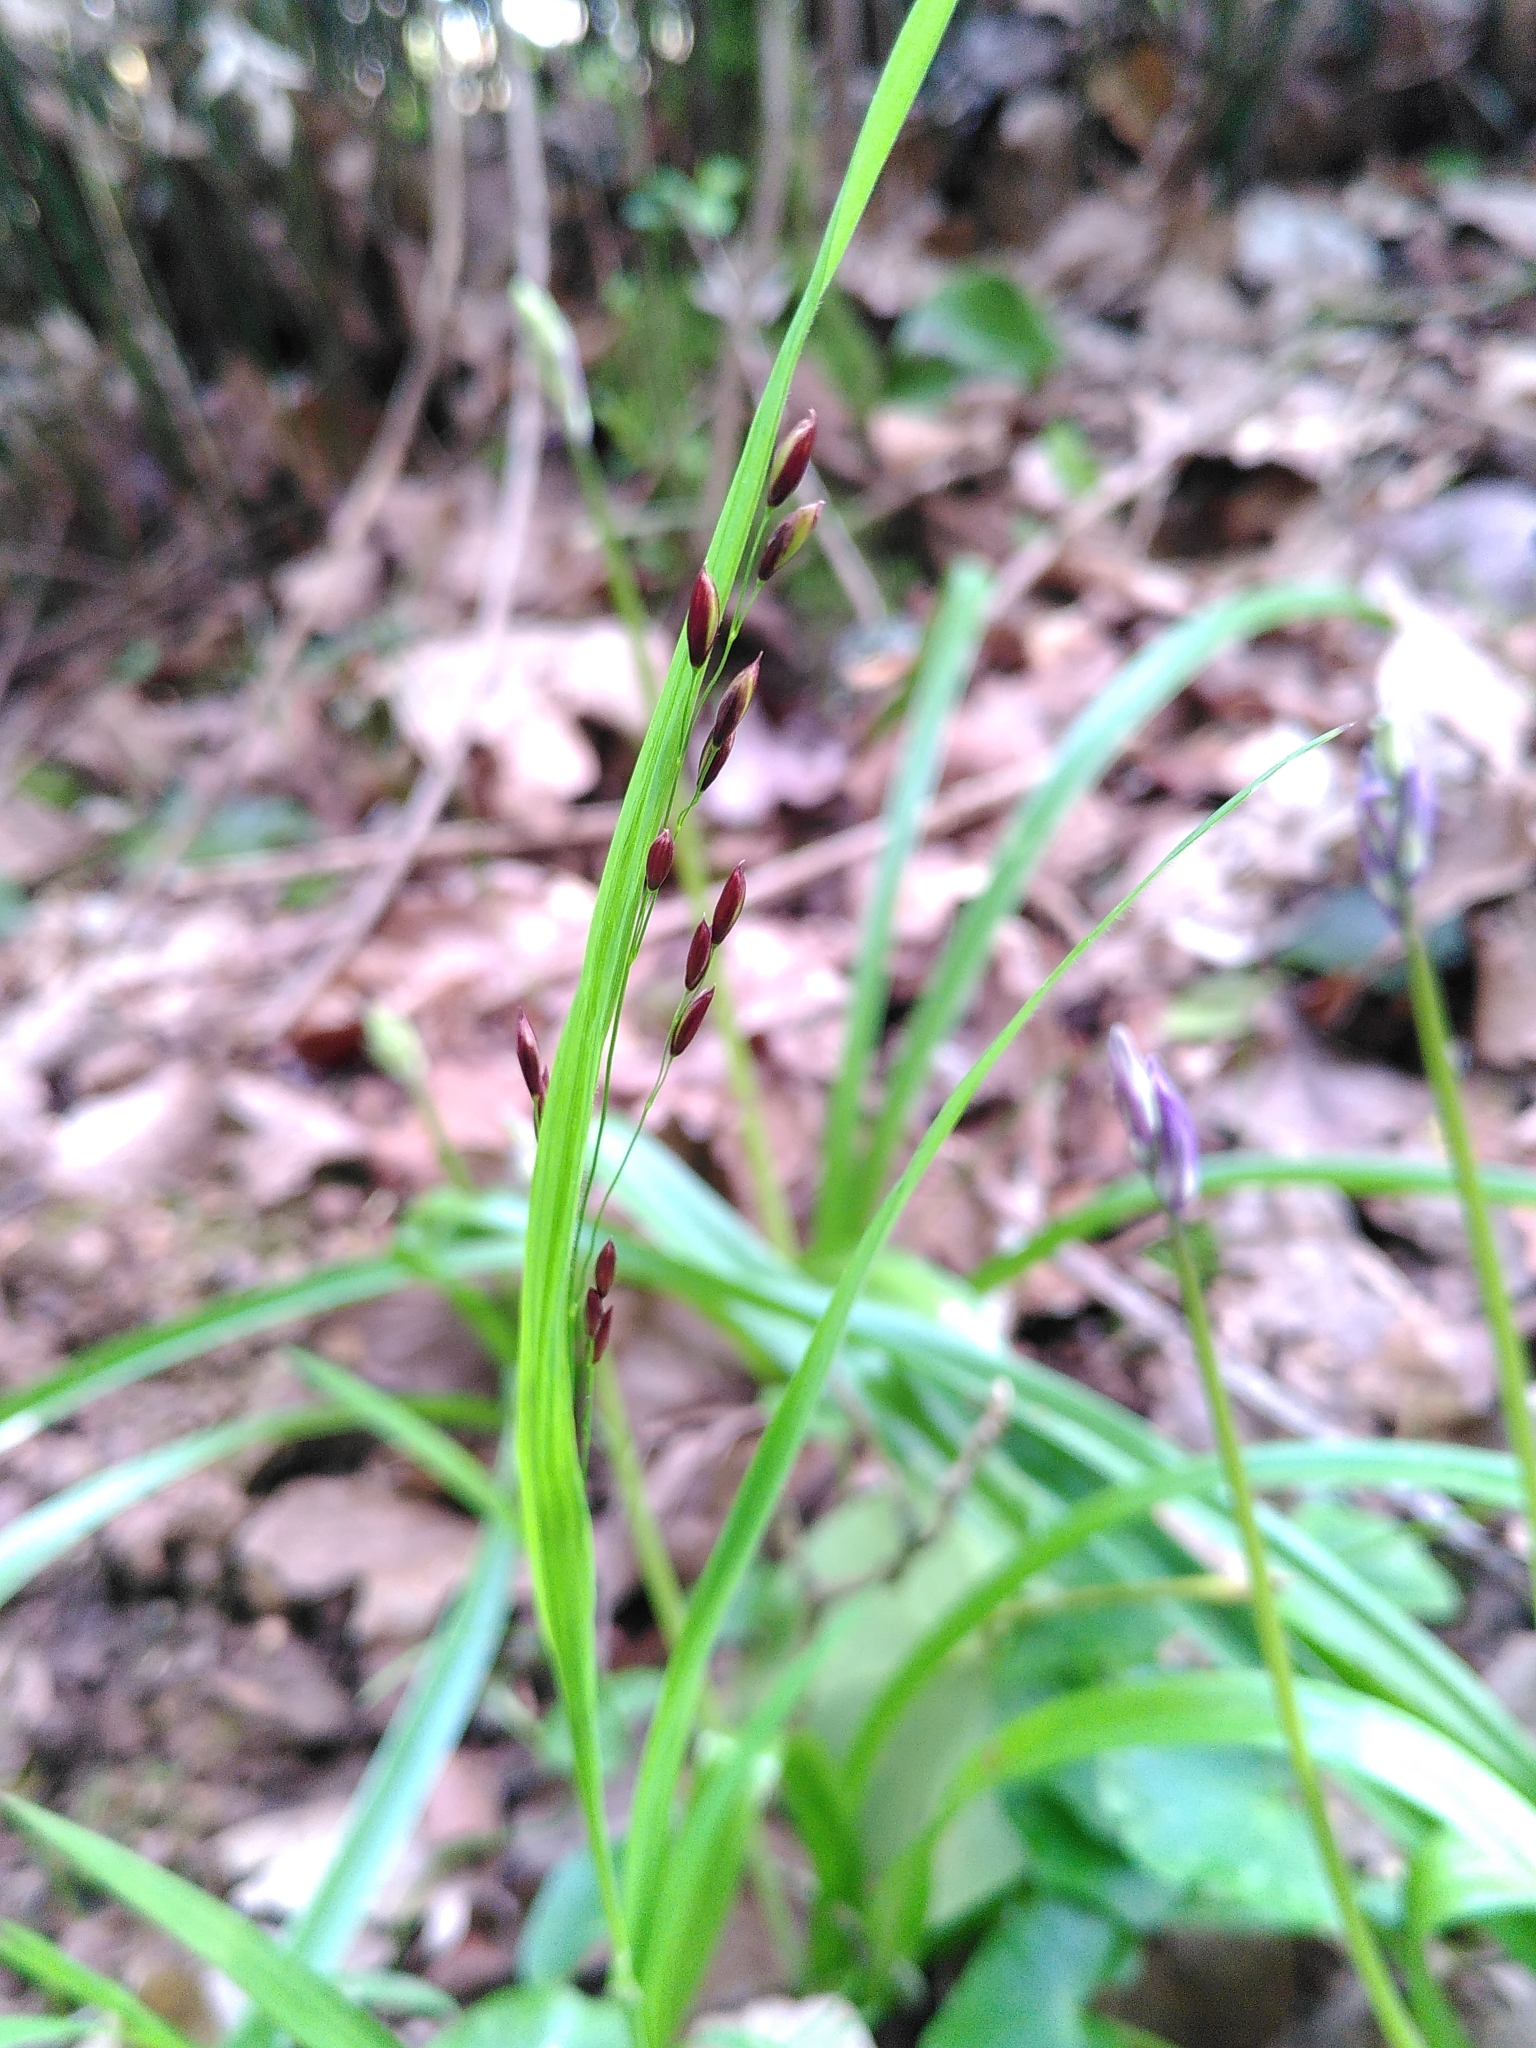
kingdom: Plantae
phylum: Tracheophyta
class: Liliopsida
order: Poales
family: Poaceae
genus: Melica
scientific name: Melica uniflora
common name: Wood melick
